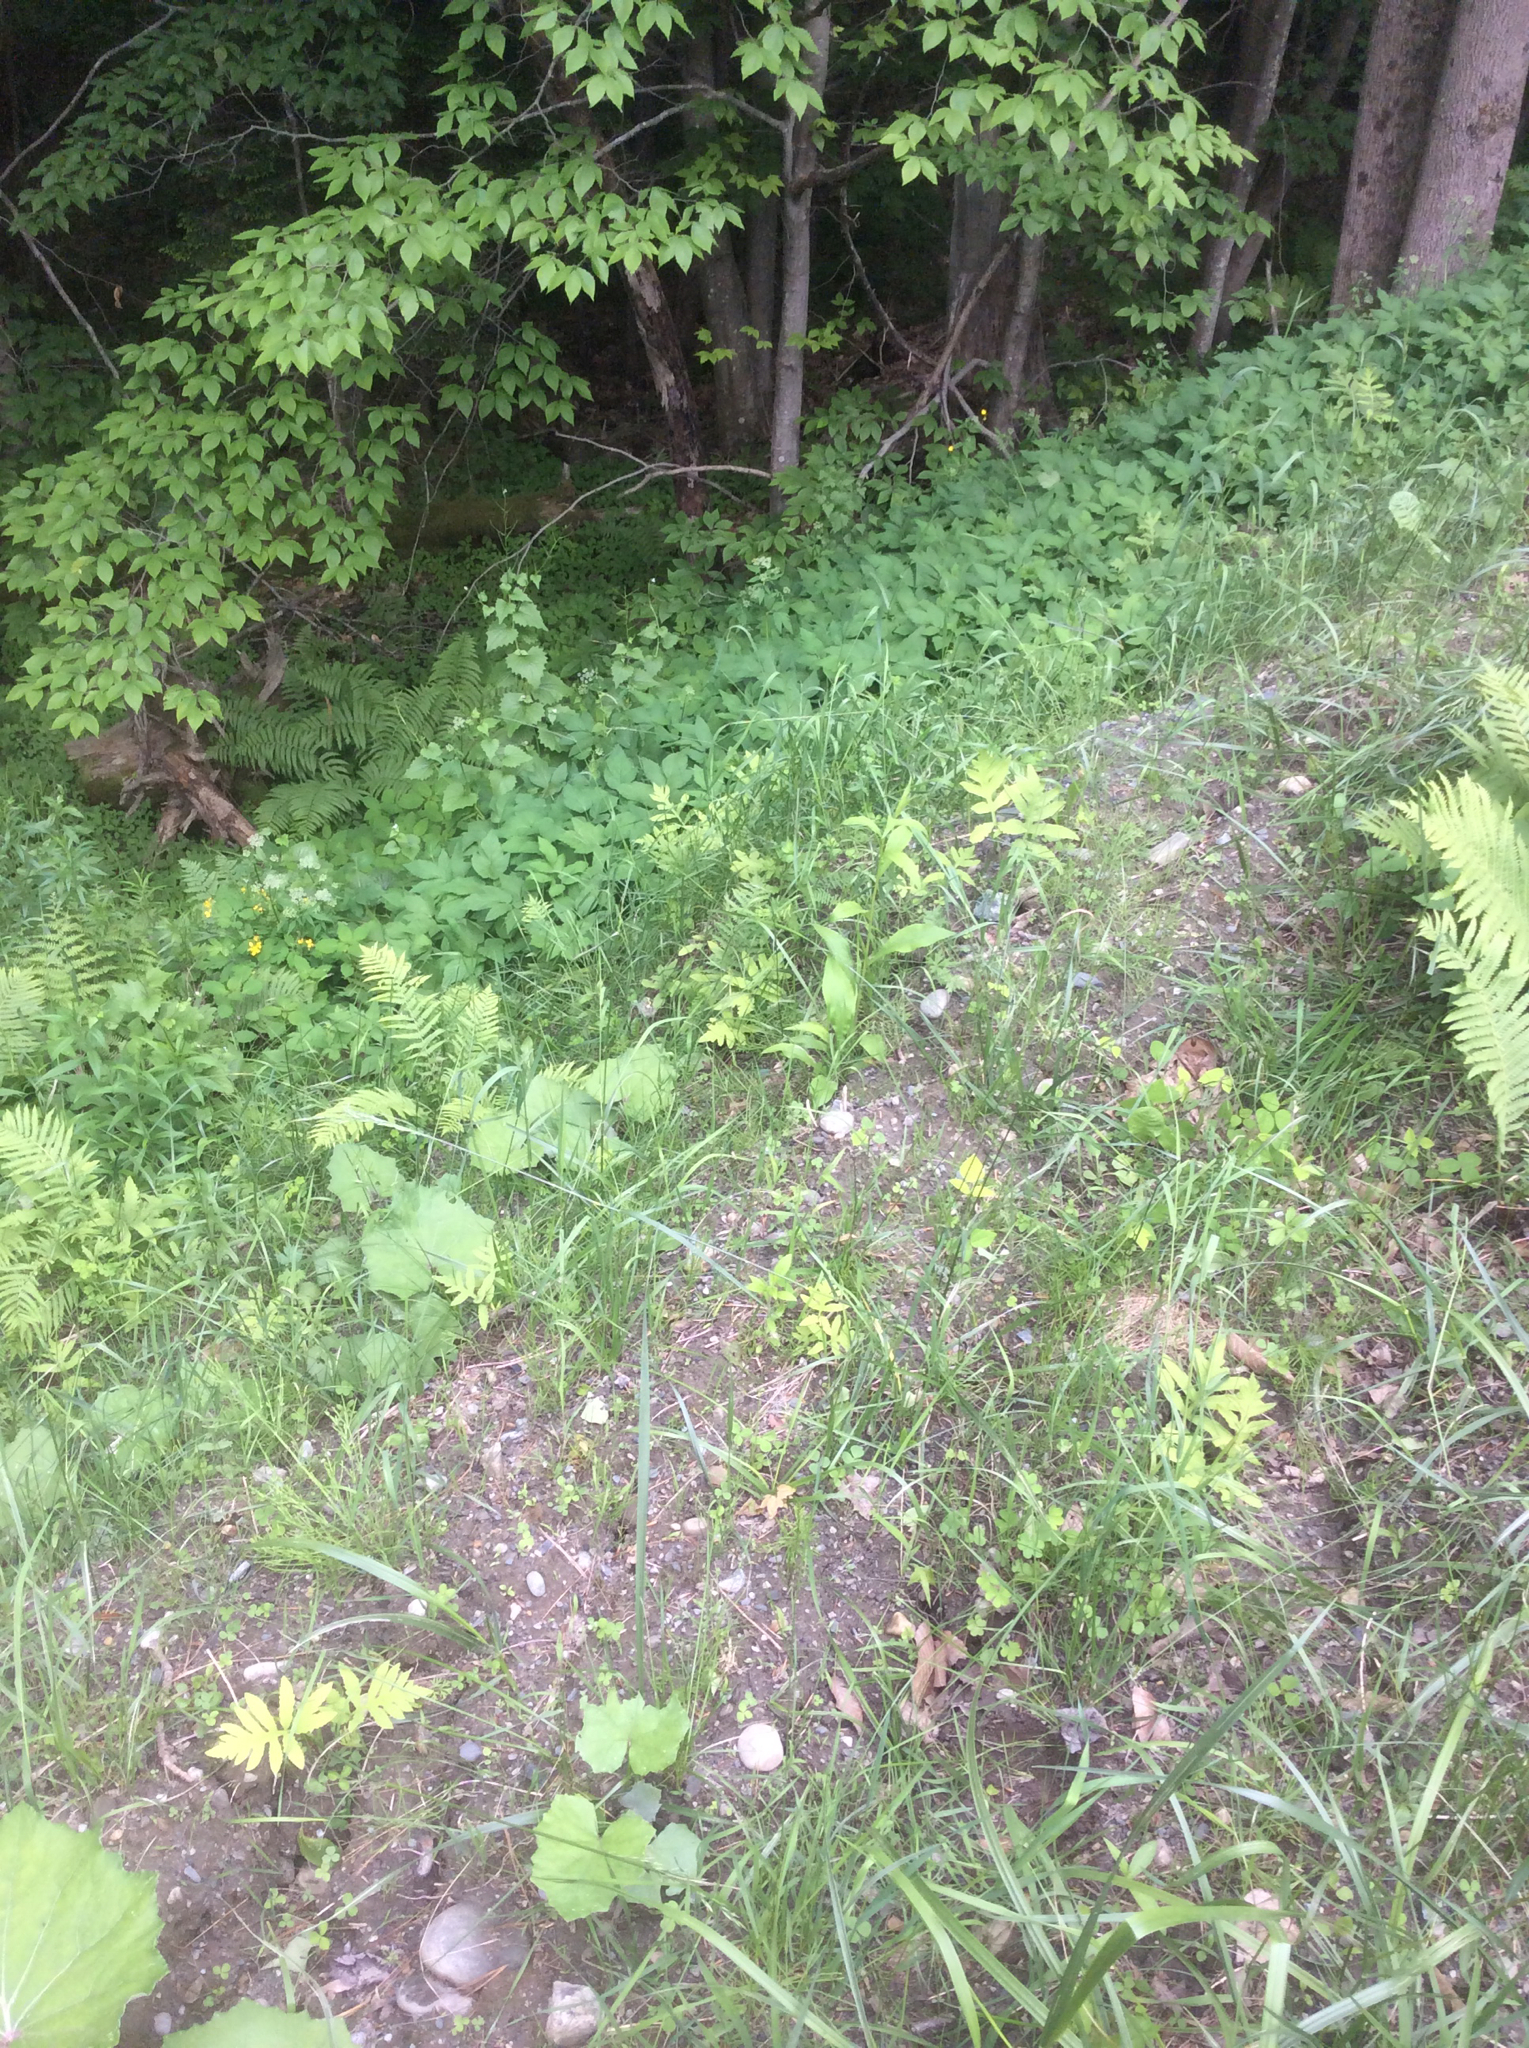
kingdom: Plantae
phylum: Tracheophyta
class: Magnoliopsida
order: Brassicales
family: Brassicaceae
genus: Alliaria
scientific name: Alliaria petiolata
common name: Garlic mustard
